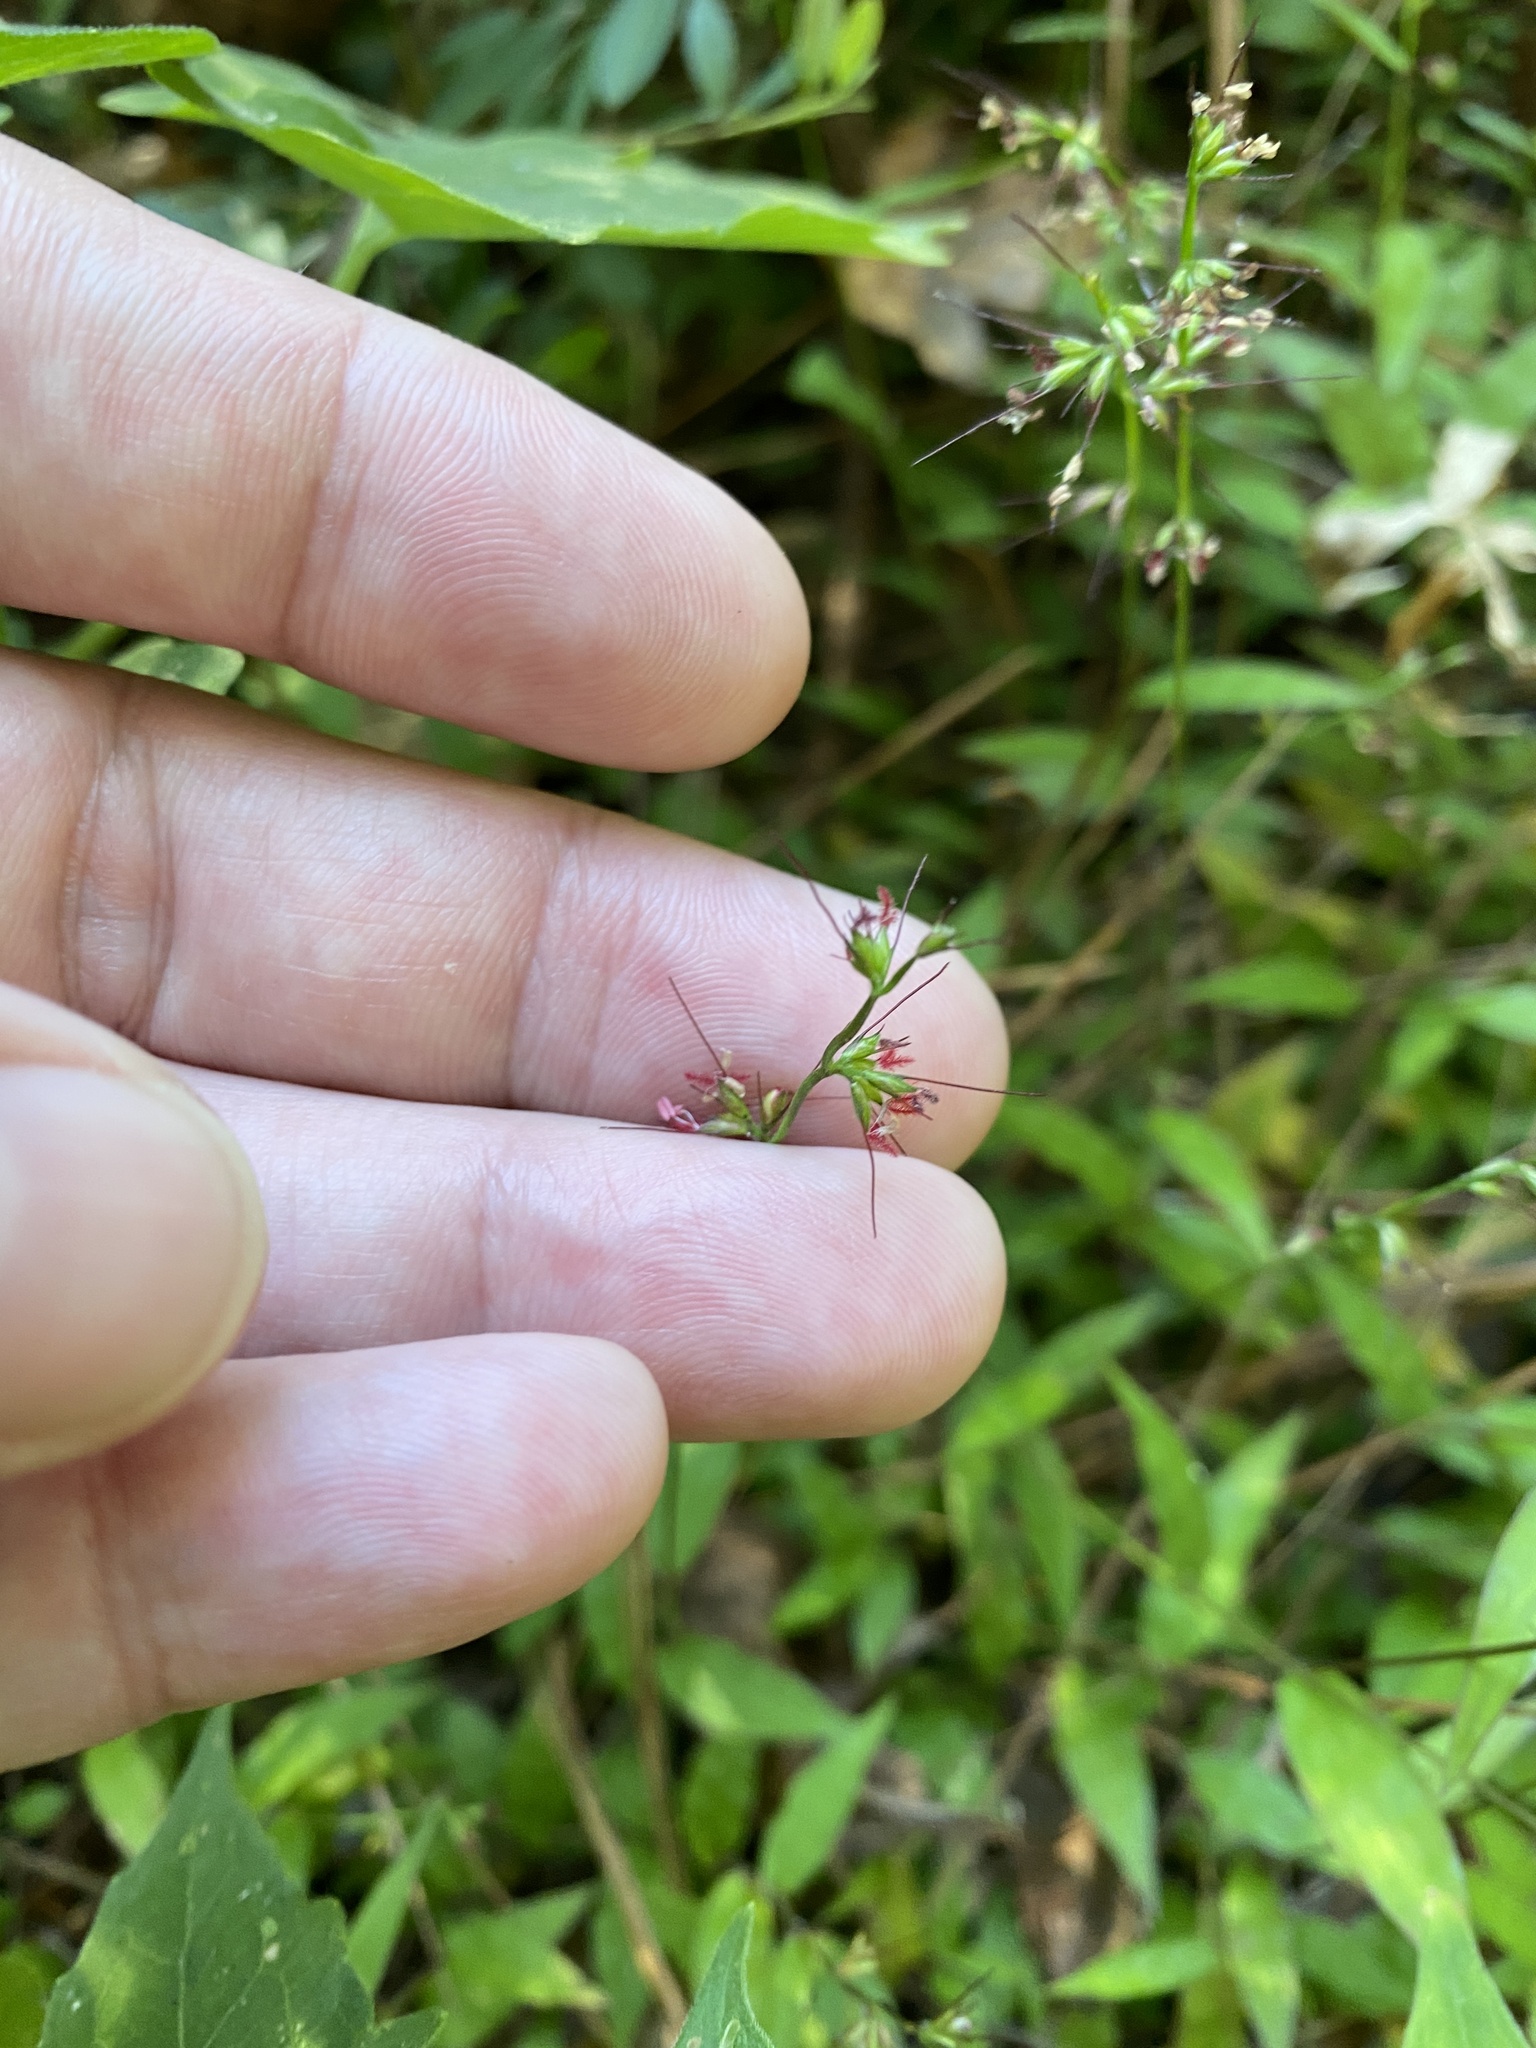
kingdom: Plantae
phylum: Tracheophyta
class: Liliopsida
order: Poales
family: Poaceae
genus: Oplismenus
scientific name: Oplismenus hirtellus
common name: Basketgrass
